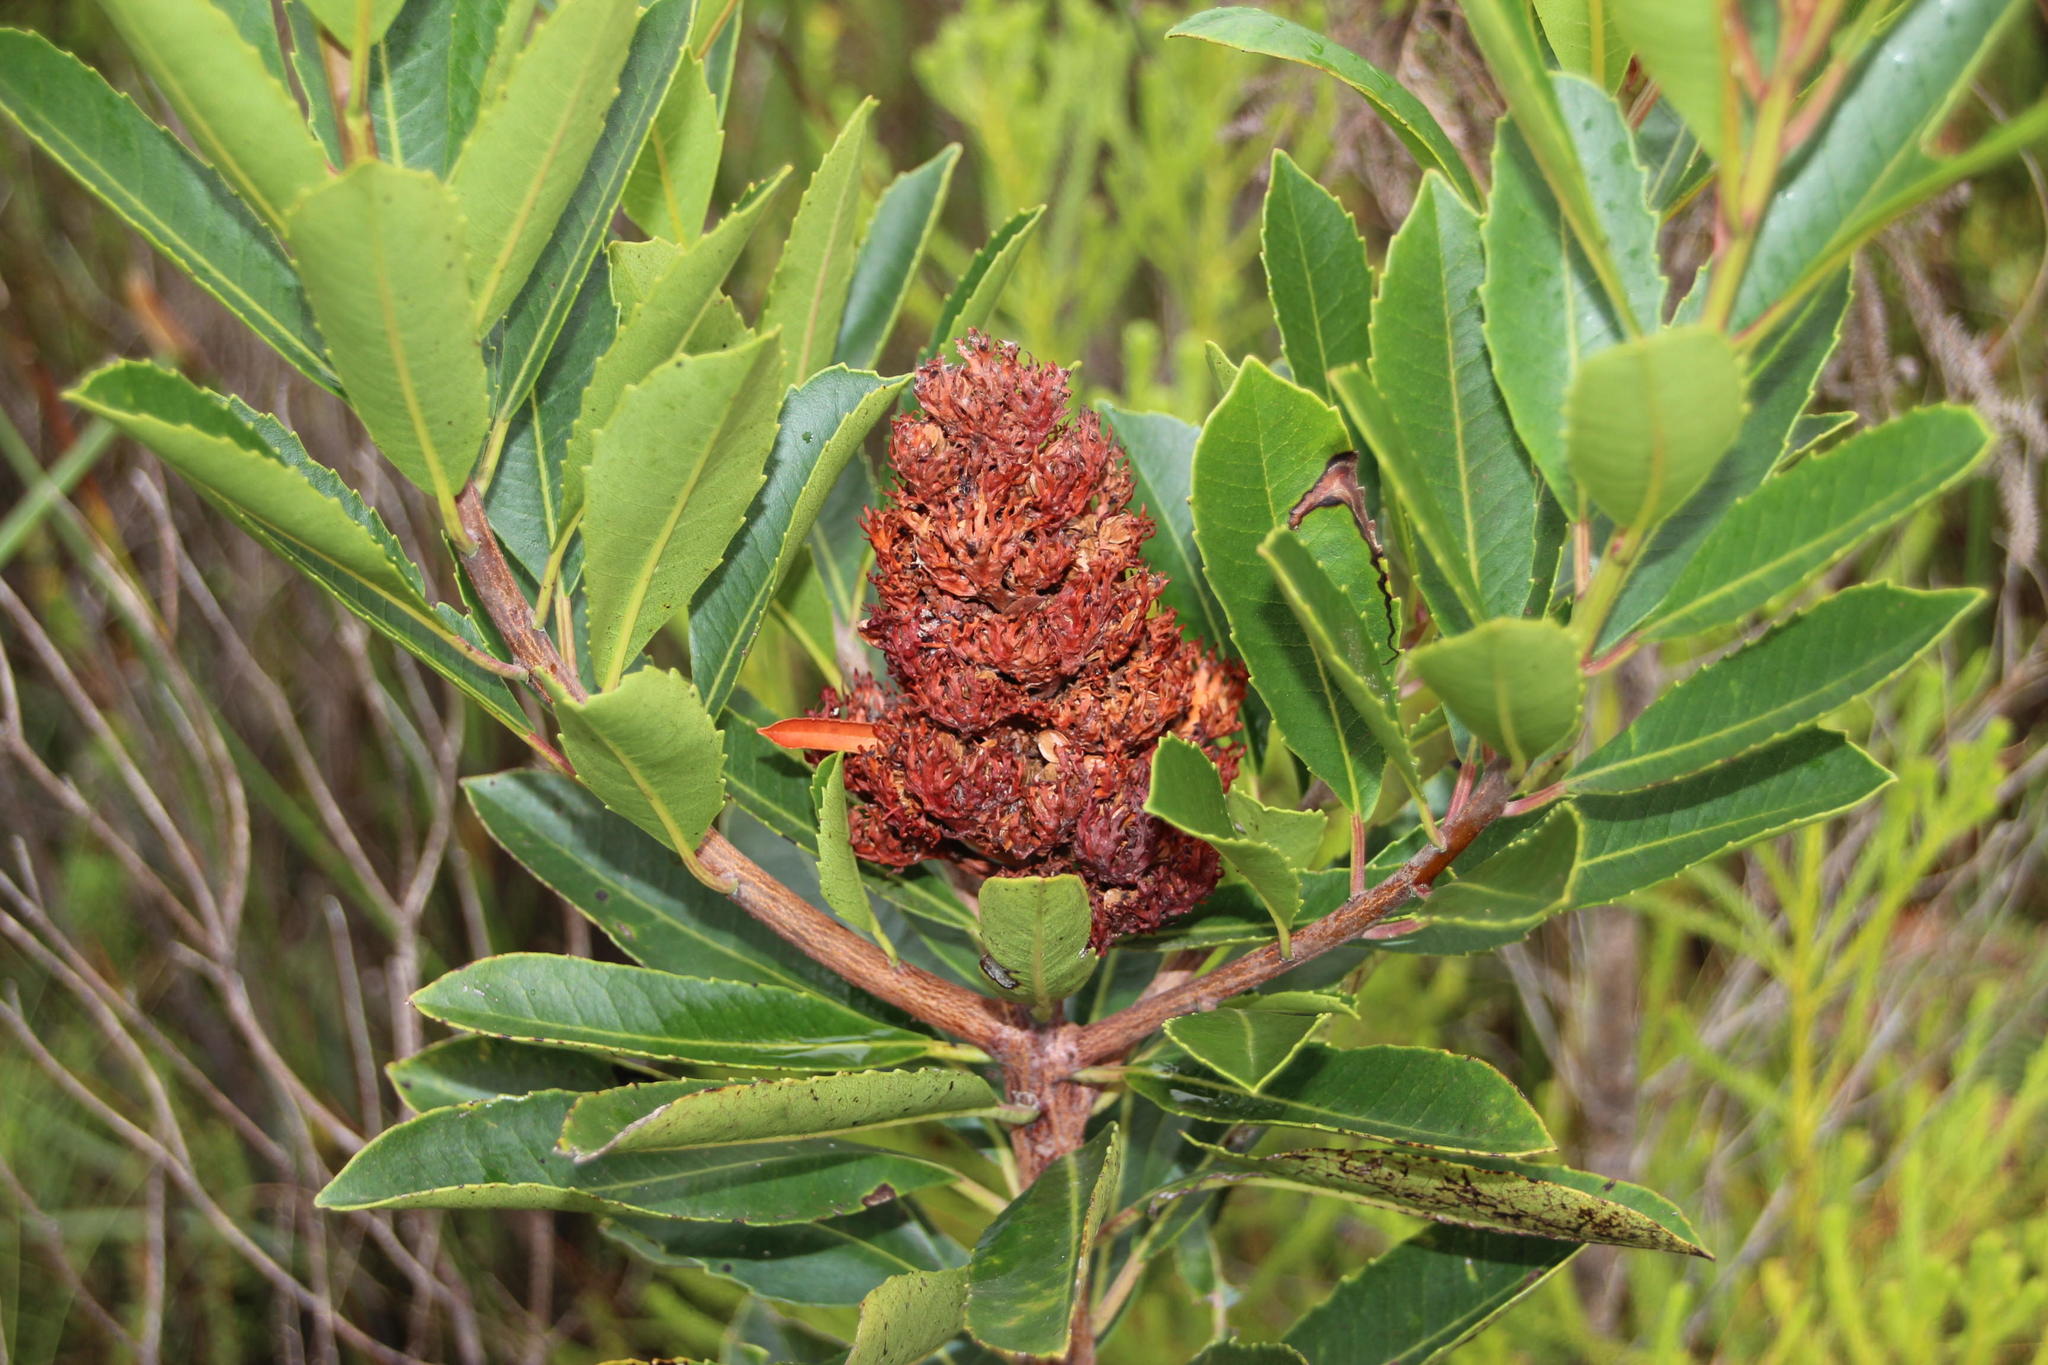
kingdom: Plantae
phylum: Tracheophyta
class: Magnoliopsida
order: Sapindales
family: Anacardiaceae
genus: Laurophyllus
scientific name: Laurophyllus capensis
